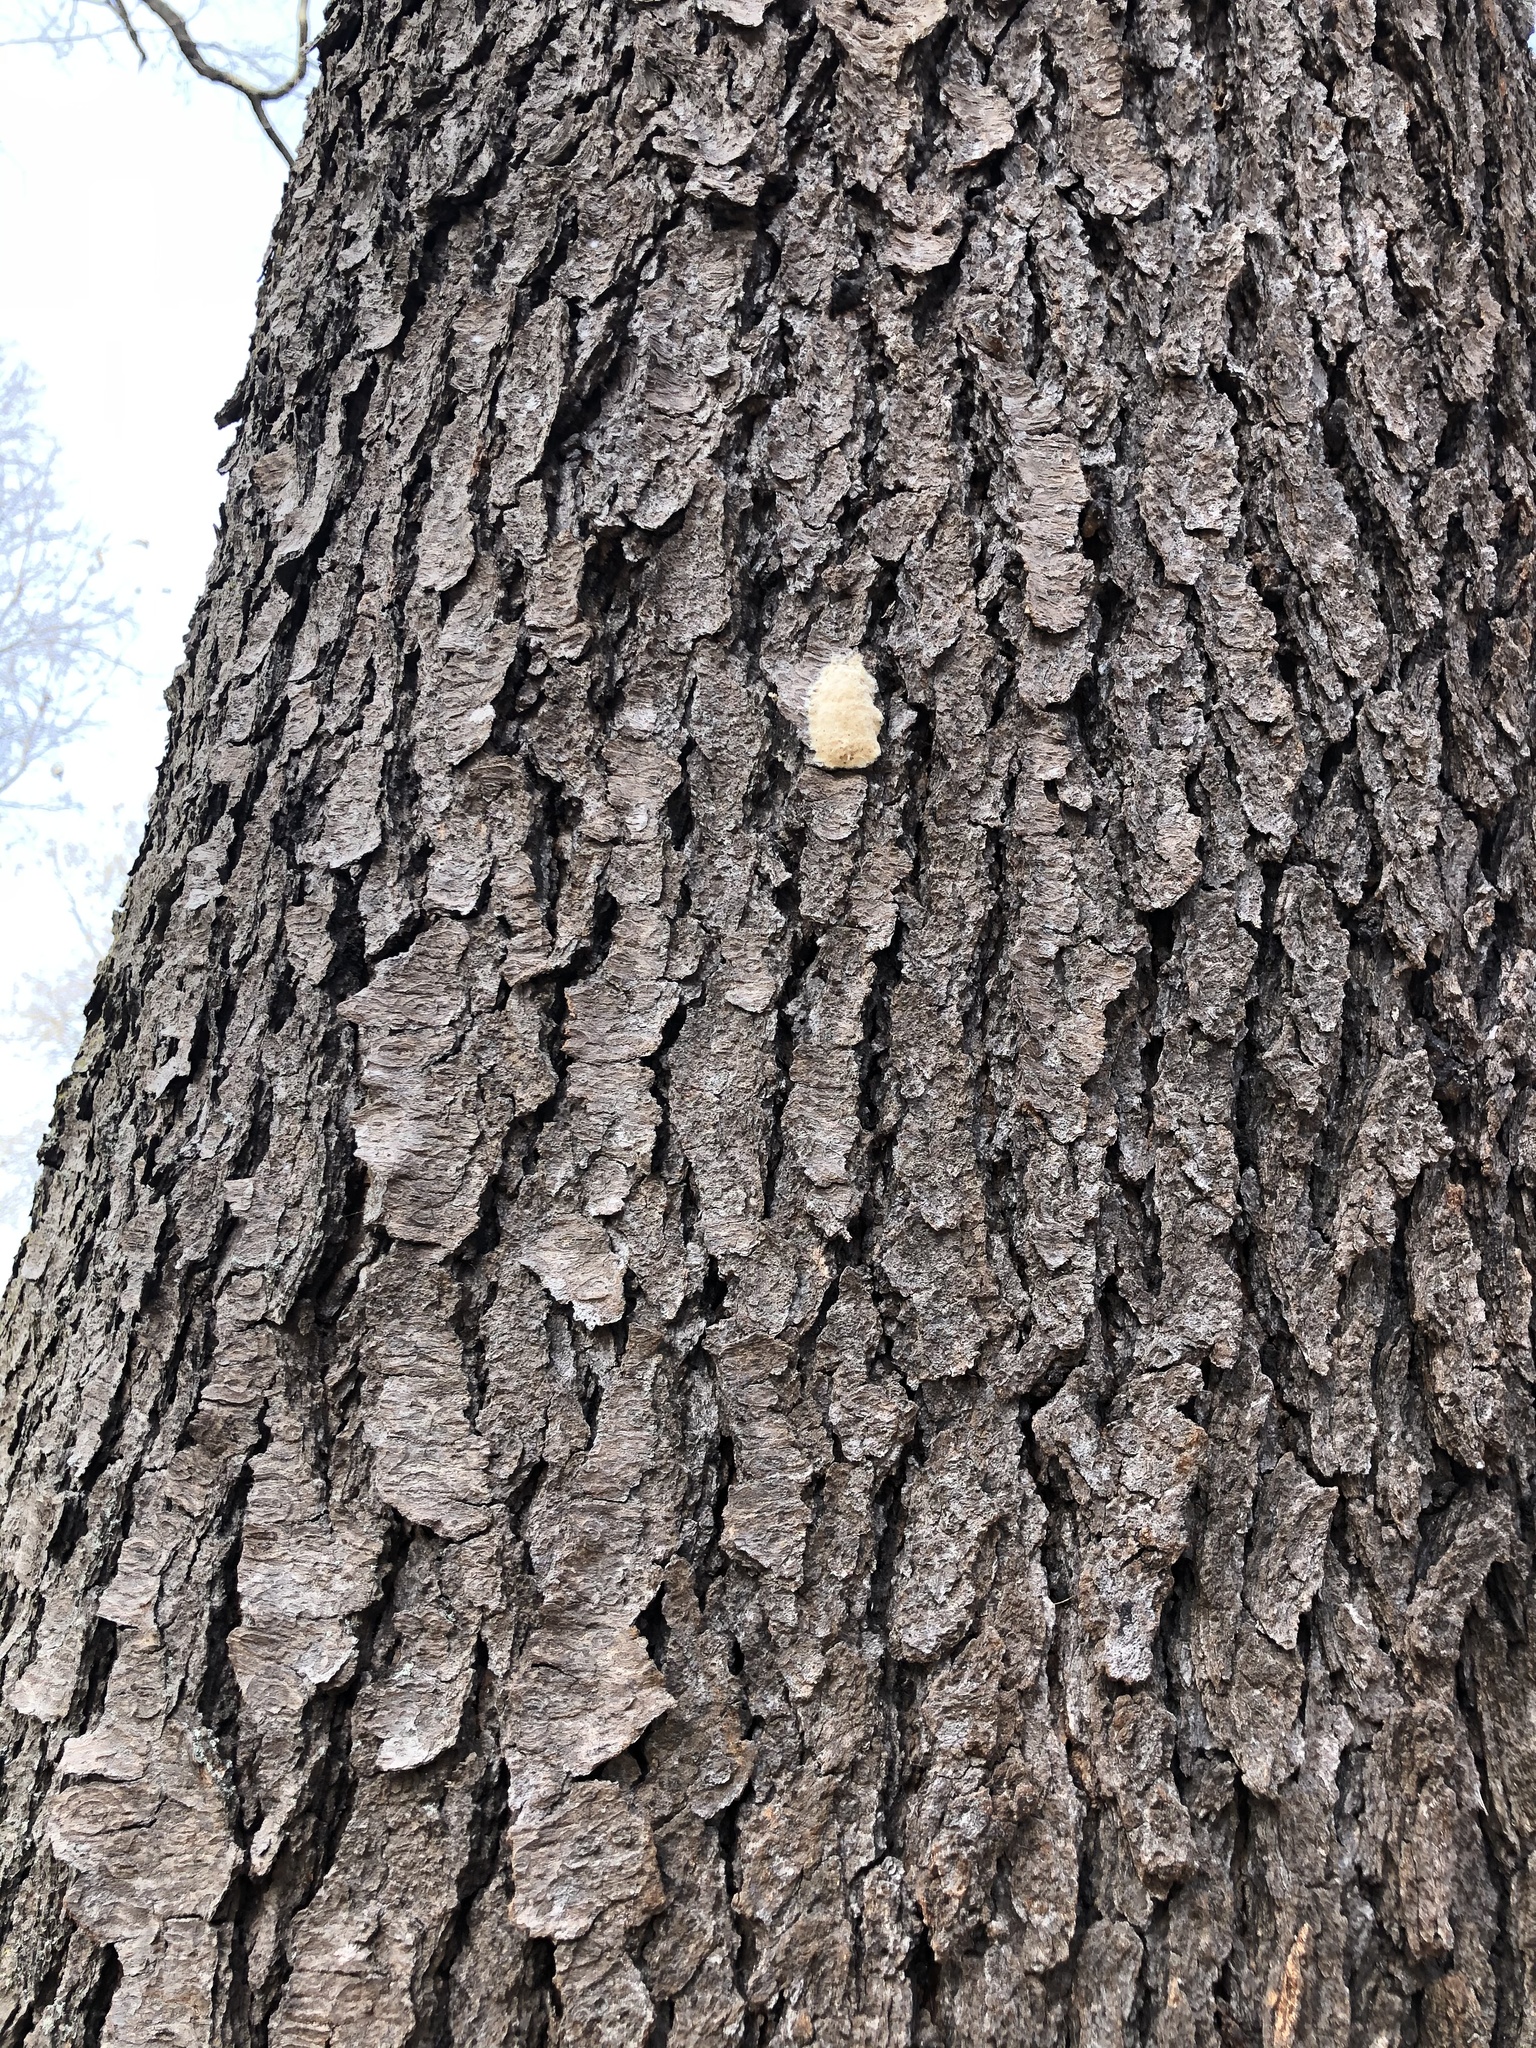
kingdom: Animalia
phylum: Arthropoda
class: Insecta
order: Lepidoptera
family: Erebidae
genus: Lymantria
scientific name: Lymantria dispar
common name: Gypsy moth
